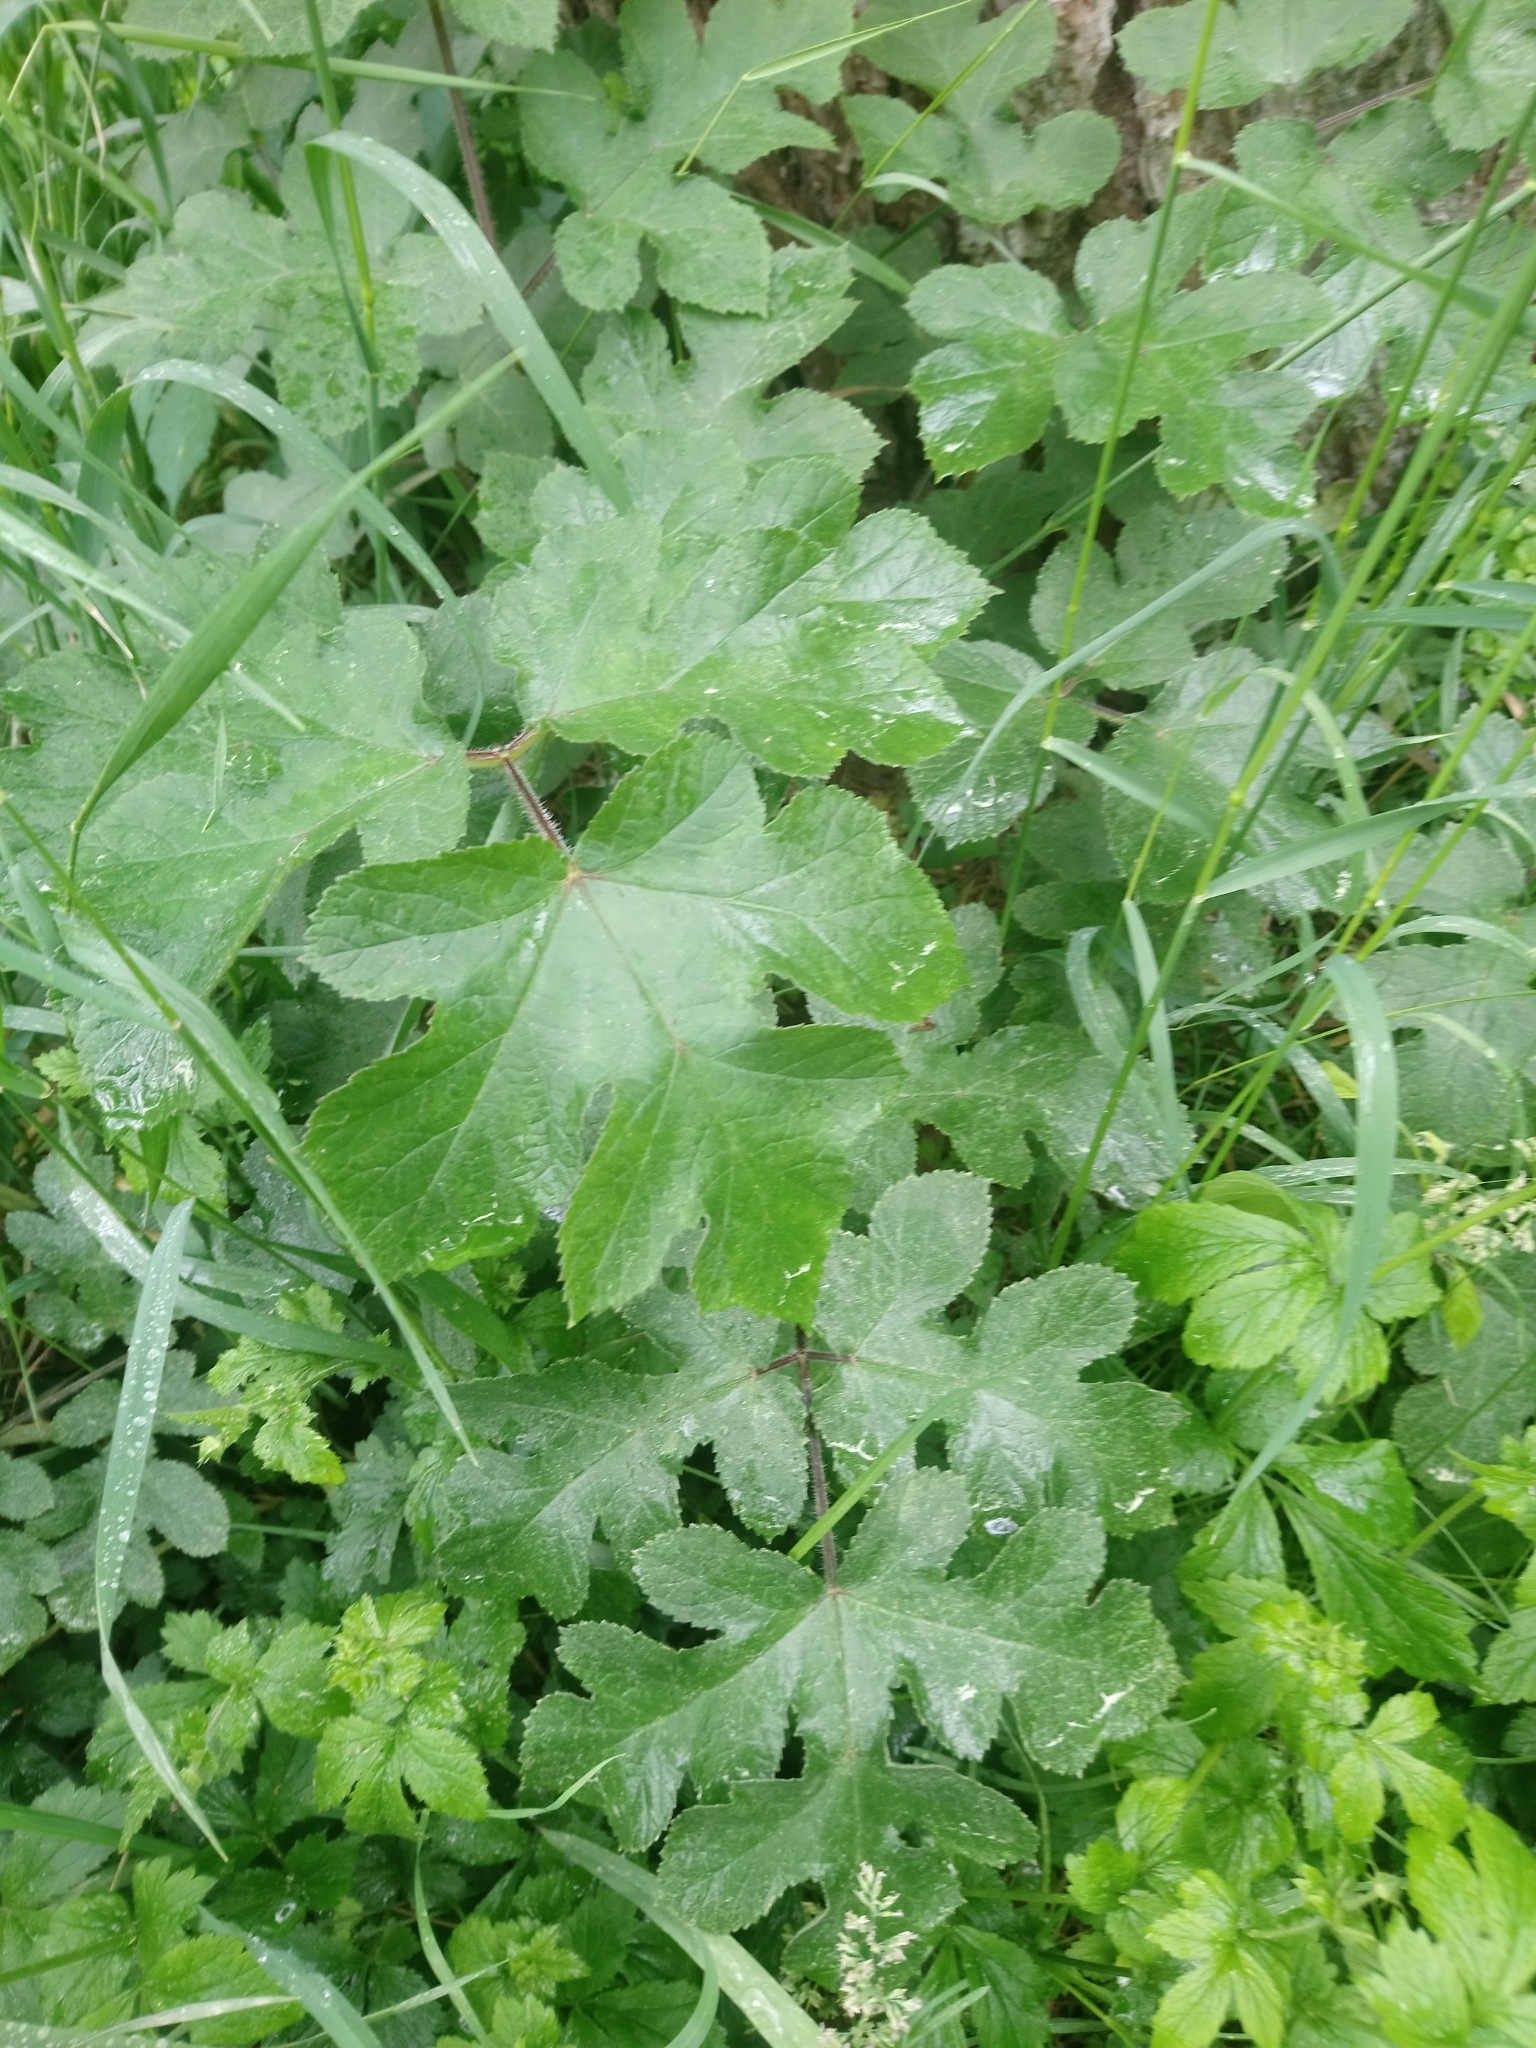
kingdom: Plantae
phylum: Tracheophyta
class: Magnoliopsida
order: Apiales
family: Apiaceae
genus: Heracleum
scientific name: Heracleum sphondylium
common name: Hogweed
